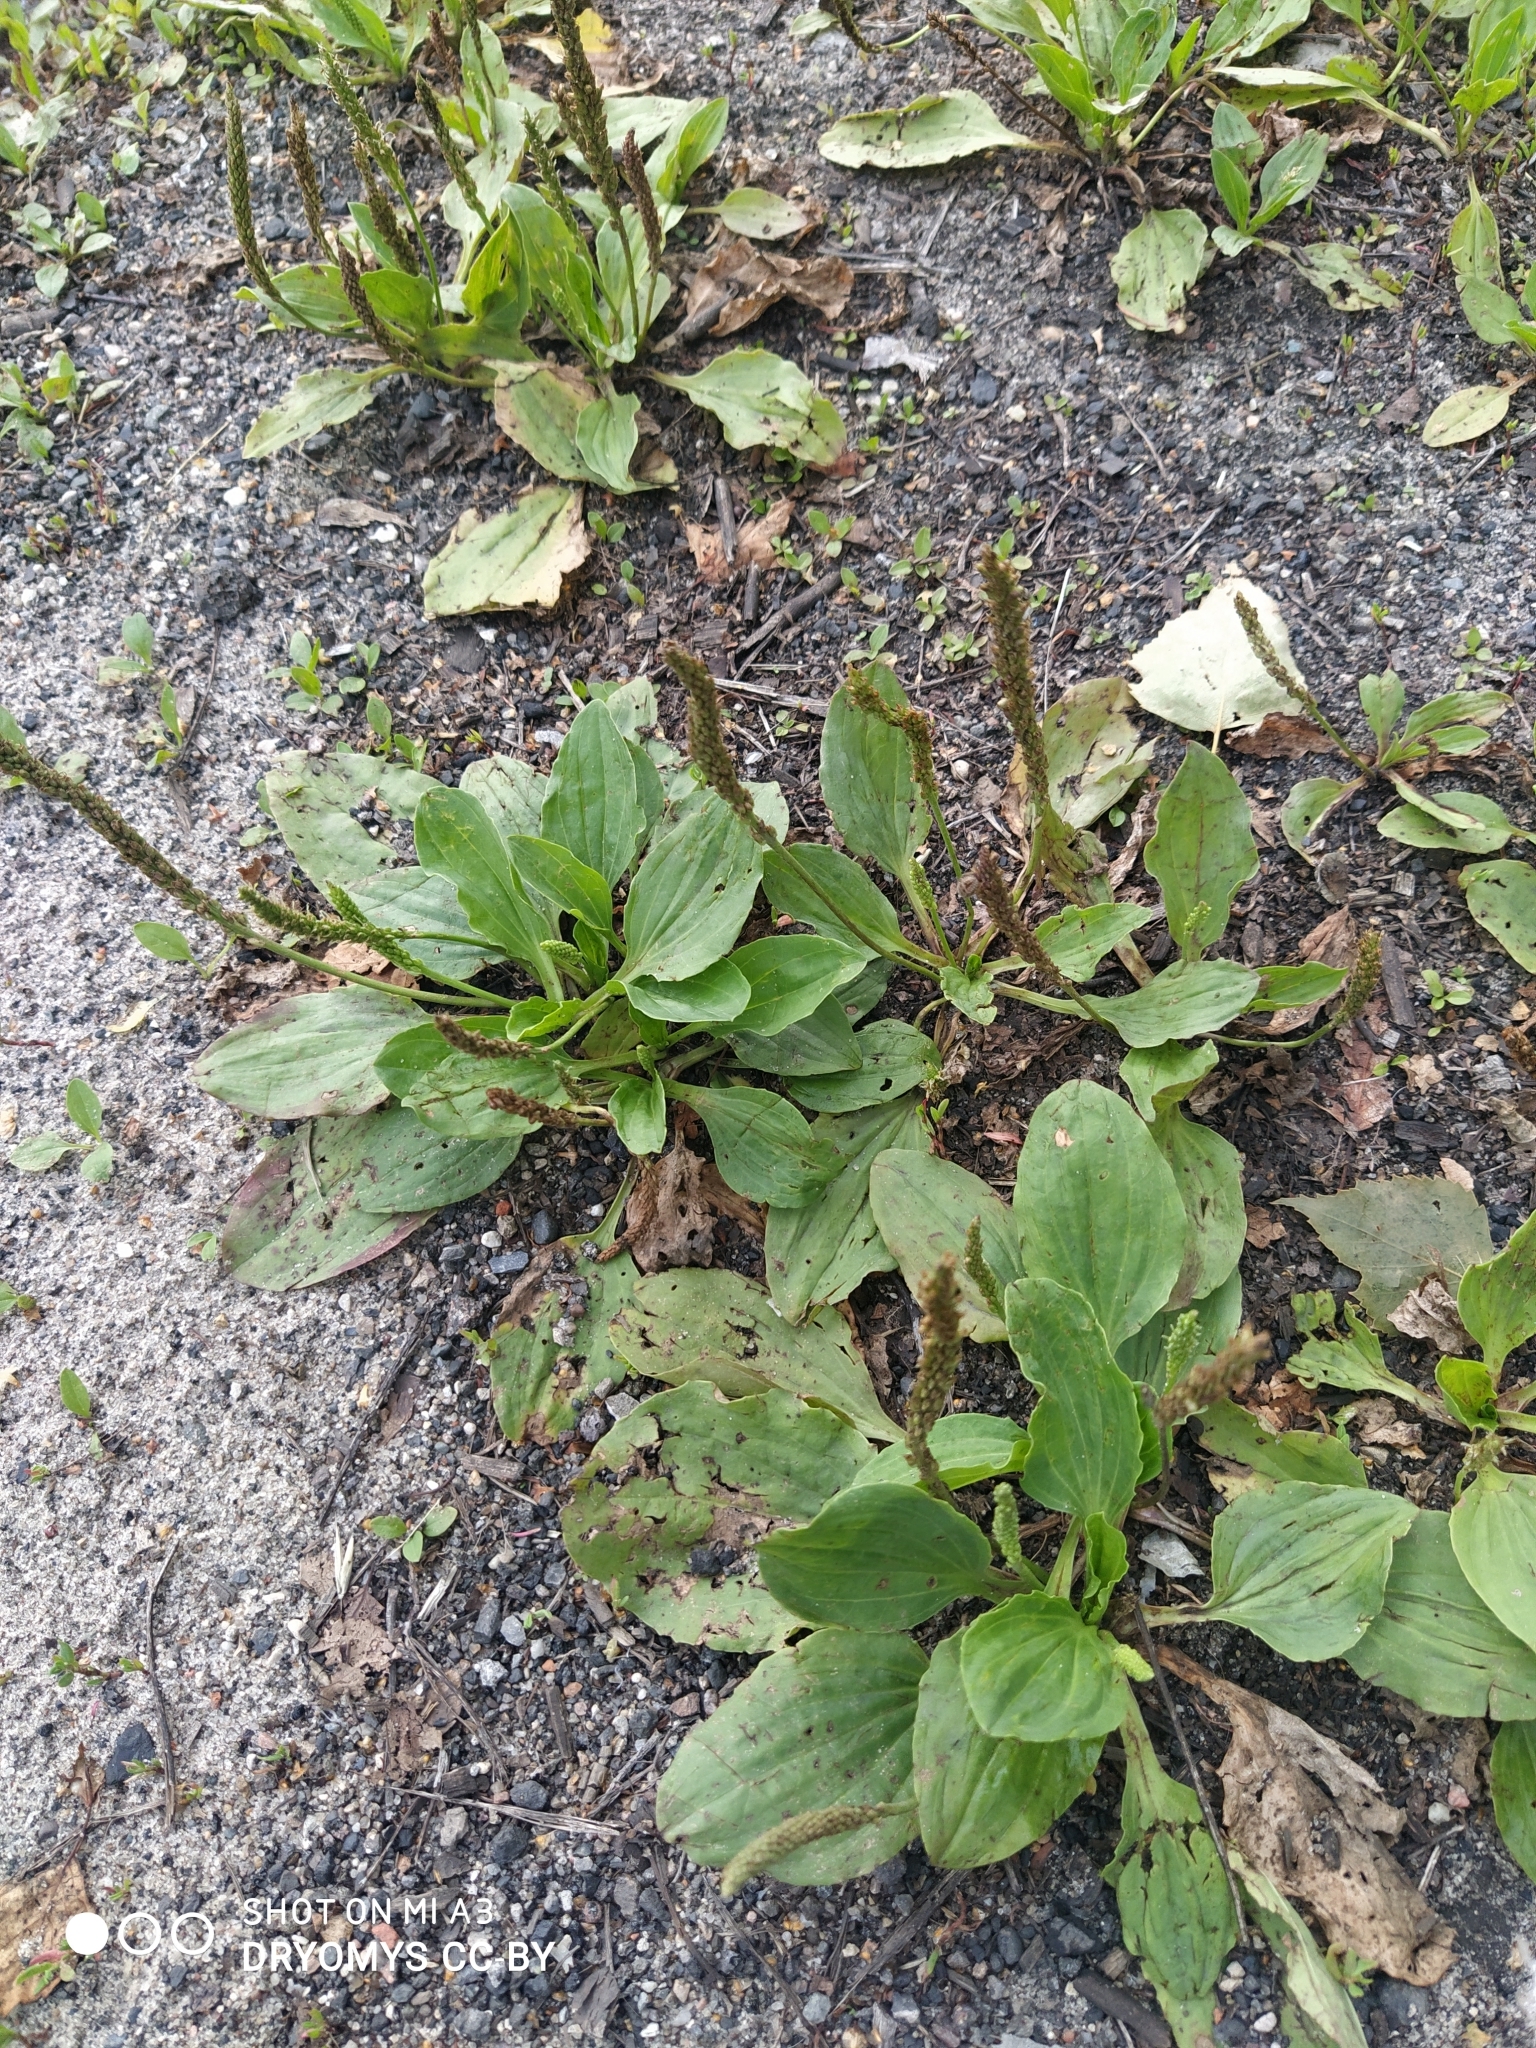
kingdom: Plantae
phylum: Tracheophyta
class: Magnoliopsida
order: Lamiales
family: Plantaginaceae
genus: Plantago
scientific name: Plantago major
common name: Common plantain
